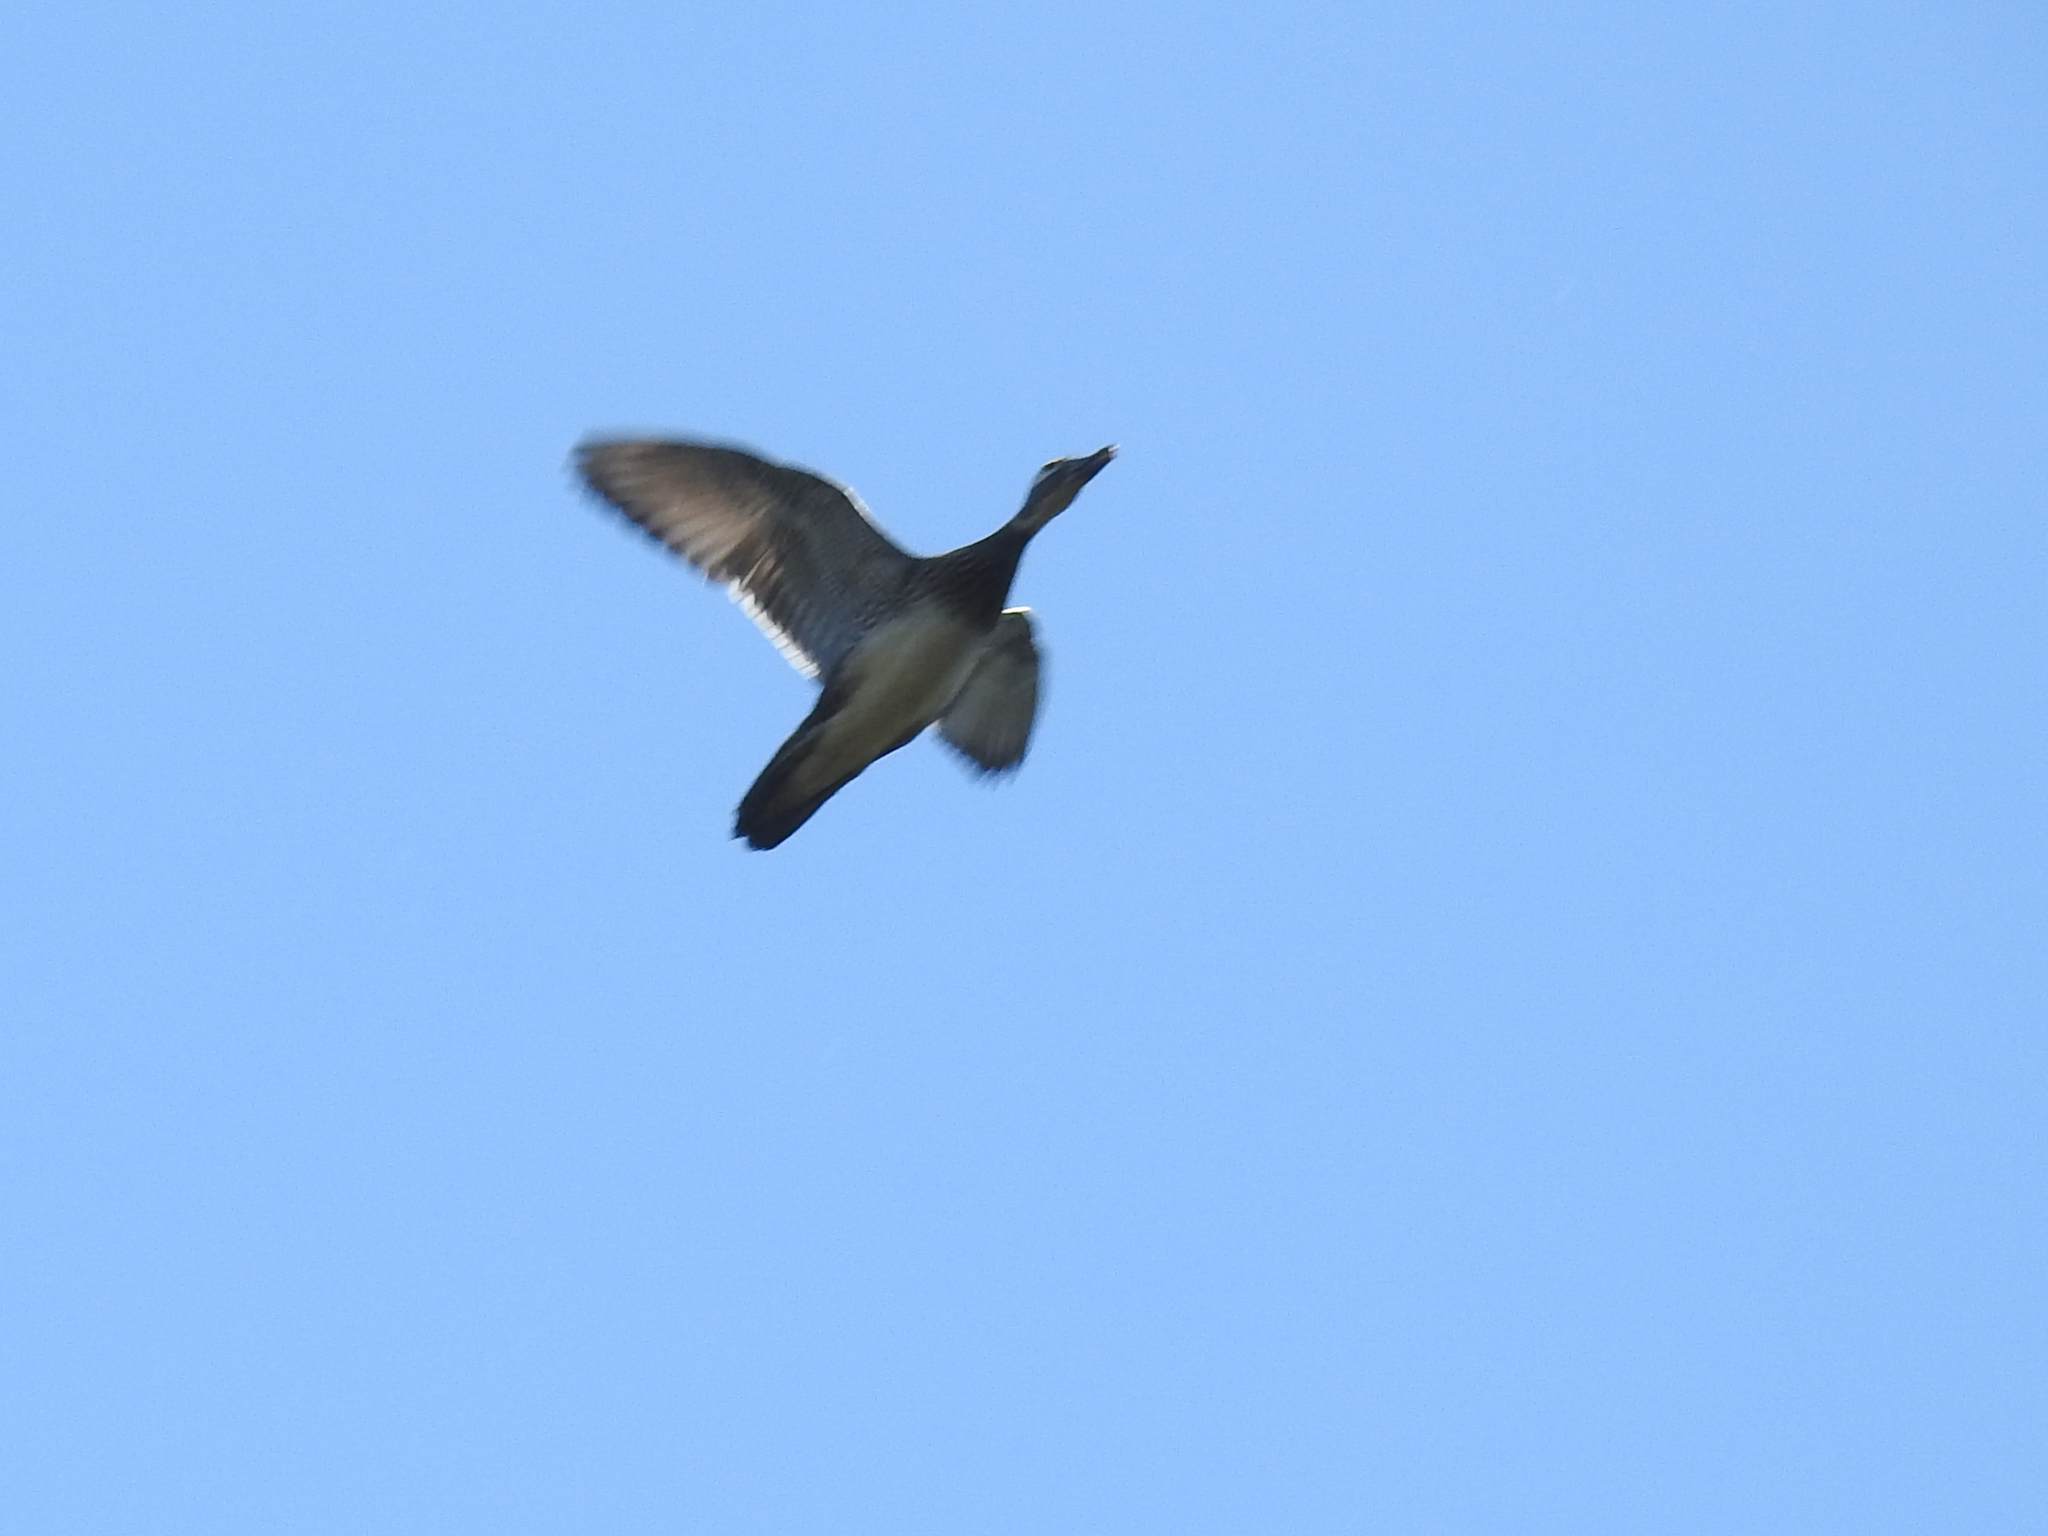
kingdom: Animalia
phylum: Chordata
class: Aves
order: Anseriformes
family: Anatidae
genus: Aix
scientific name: Aix sponsa
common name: Wood duck
